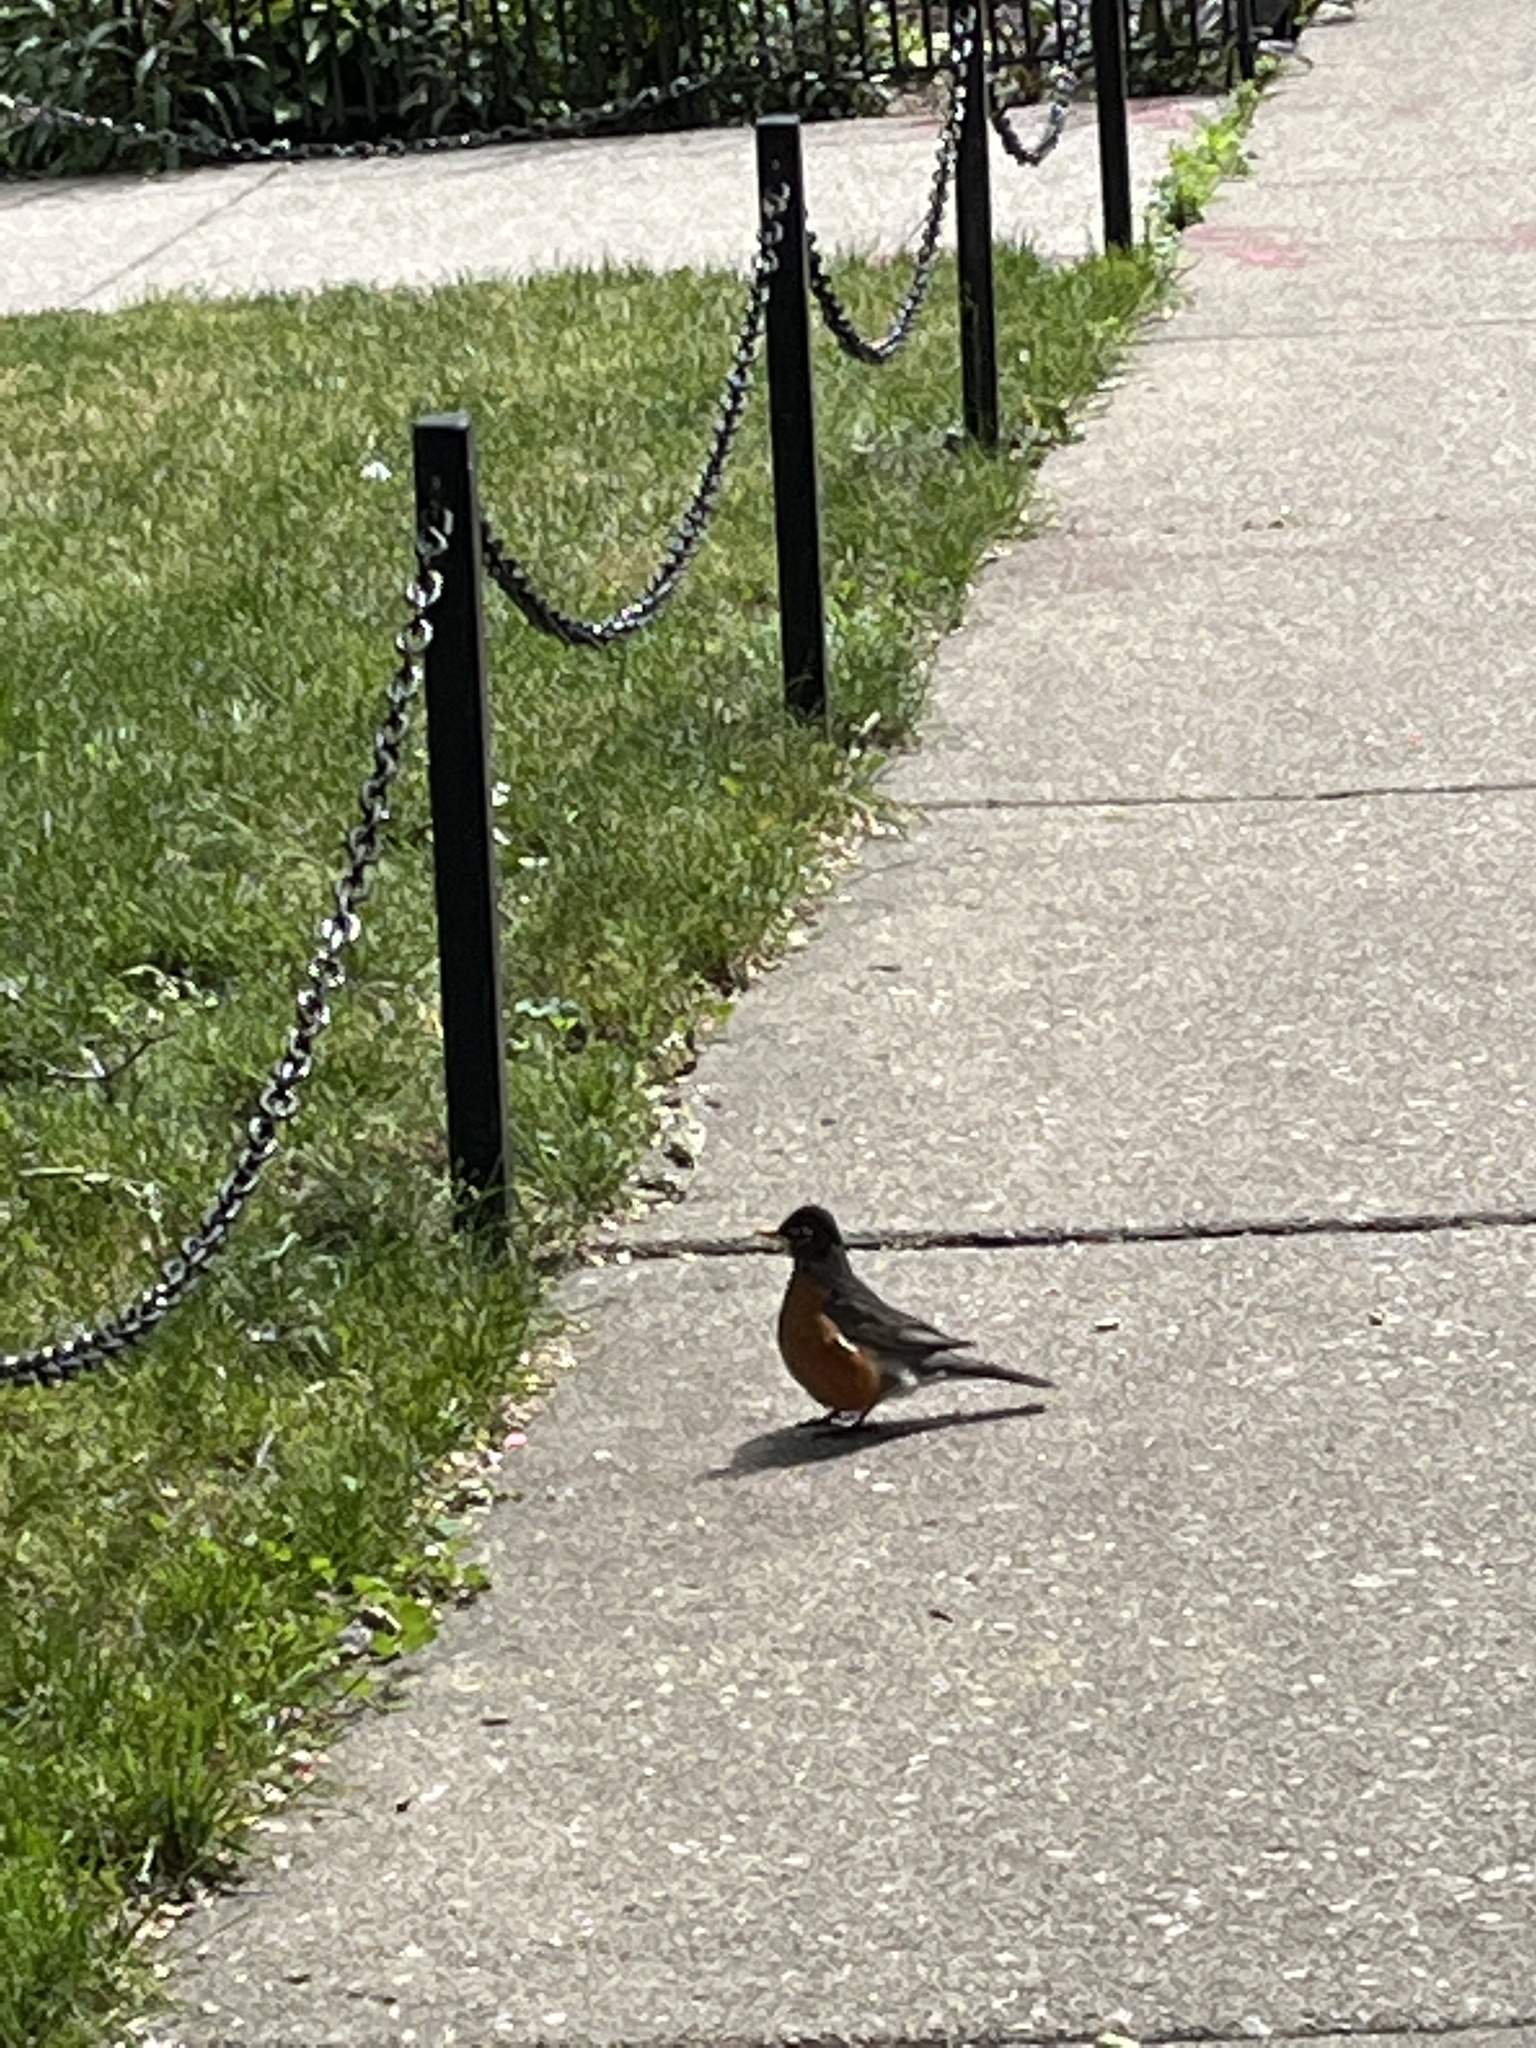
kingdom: Animalia
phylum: Chordata
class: Aves
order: Passeriformes
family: Turdidae
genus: Turdus
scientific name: Turdus migratorius
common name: American robin
